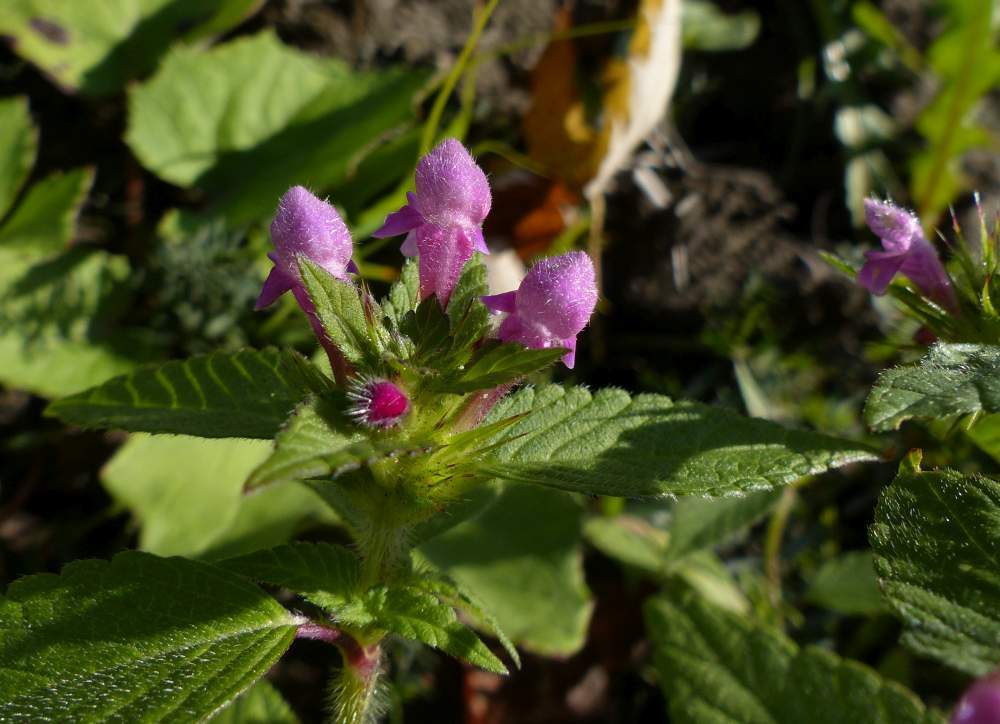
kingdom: Plantae
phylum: Tracheophyta
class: Magnoliopsida
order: Lamiales
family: Lamiaceae
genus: Galeopsis
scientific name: Galeopsis tetrahit
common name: Common hemp-nettle
